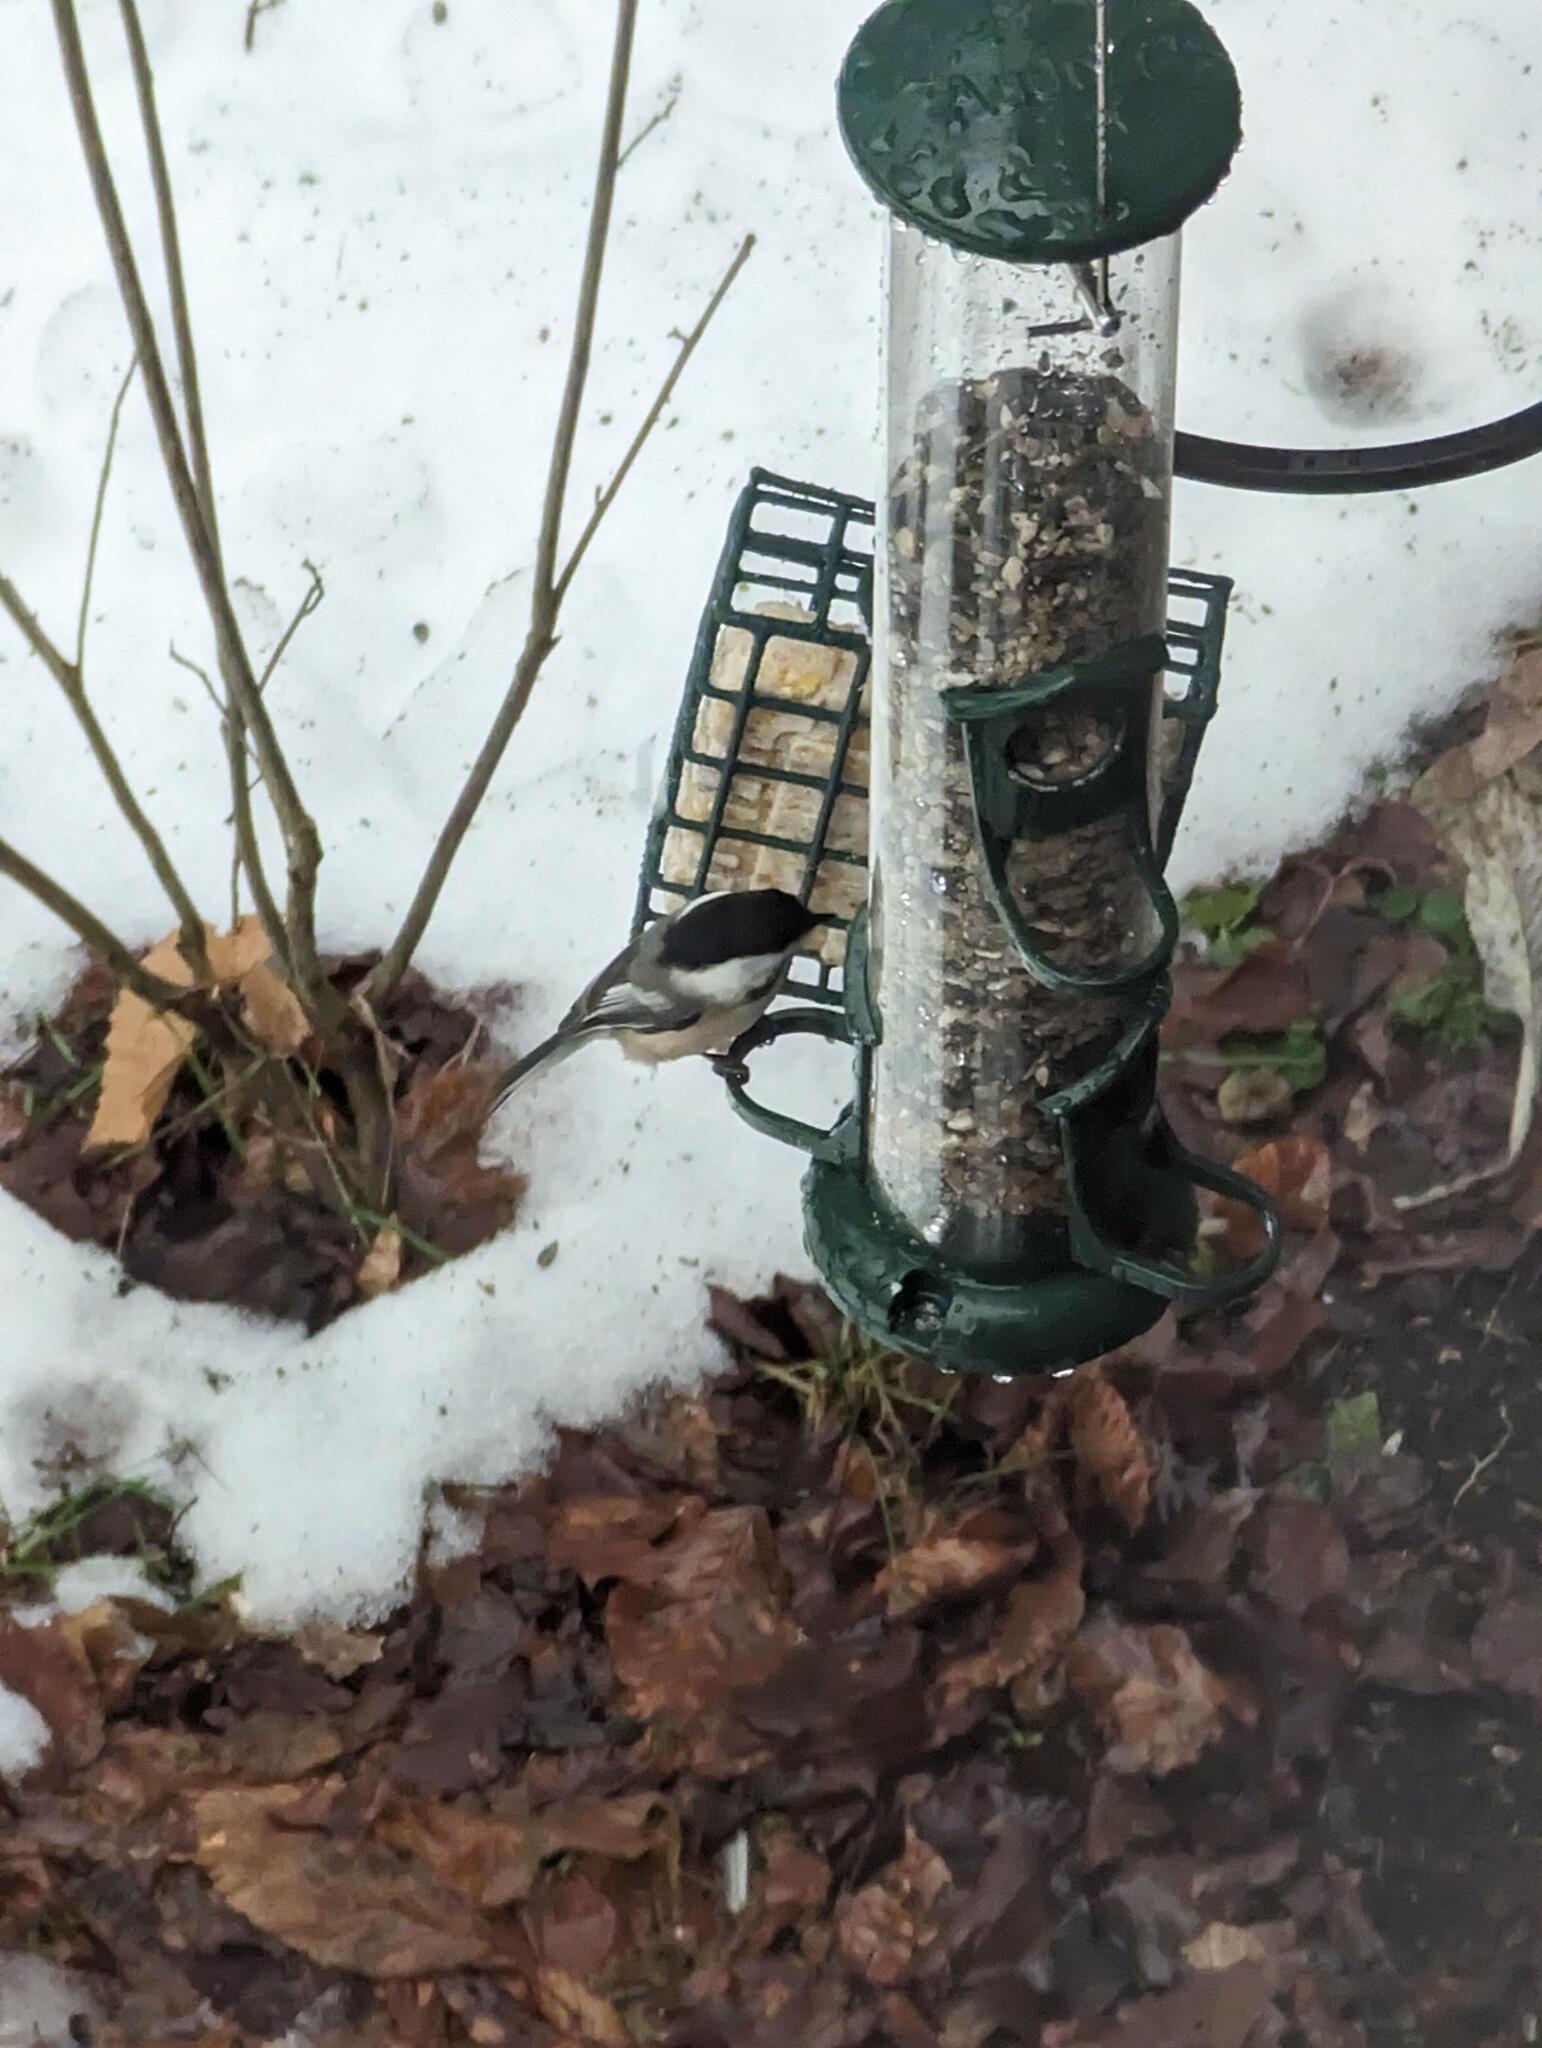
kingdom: Animalia
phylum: Chordata
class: Aves
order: Passeriformes
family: Paridae
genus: Poecile
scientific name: Poecile atricapillus
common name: Black-capped chickadee
